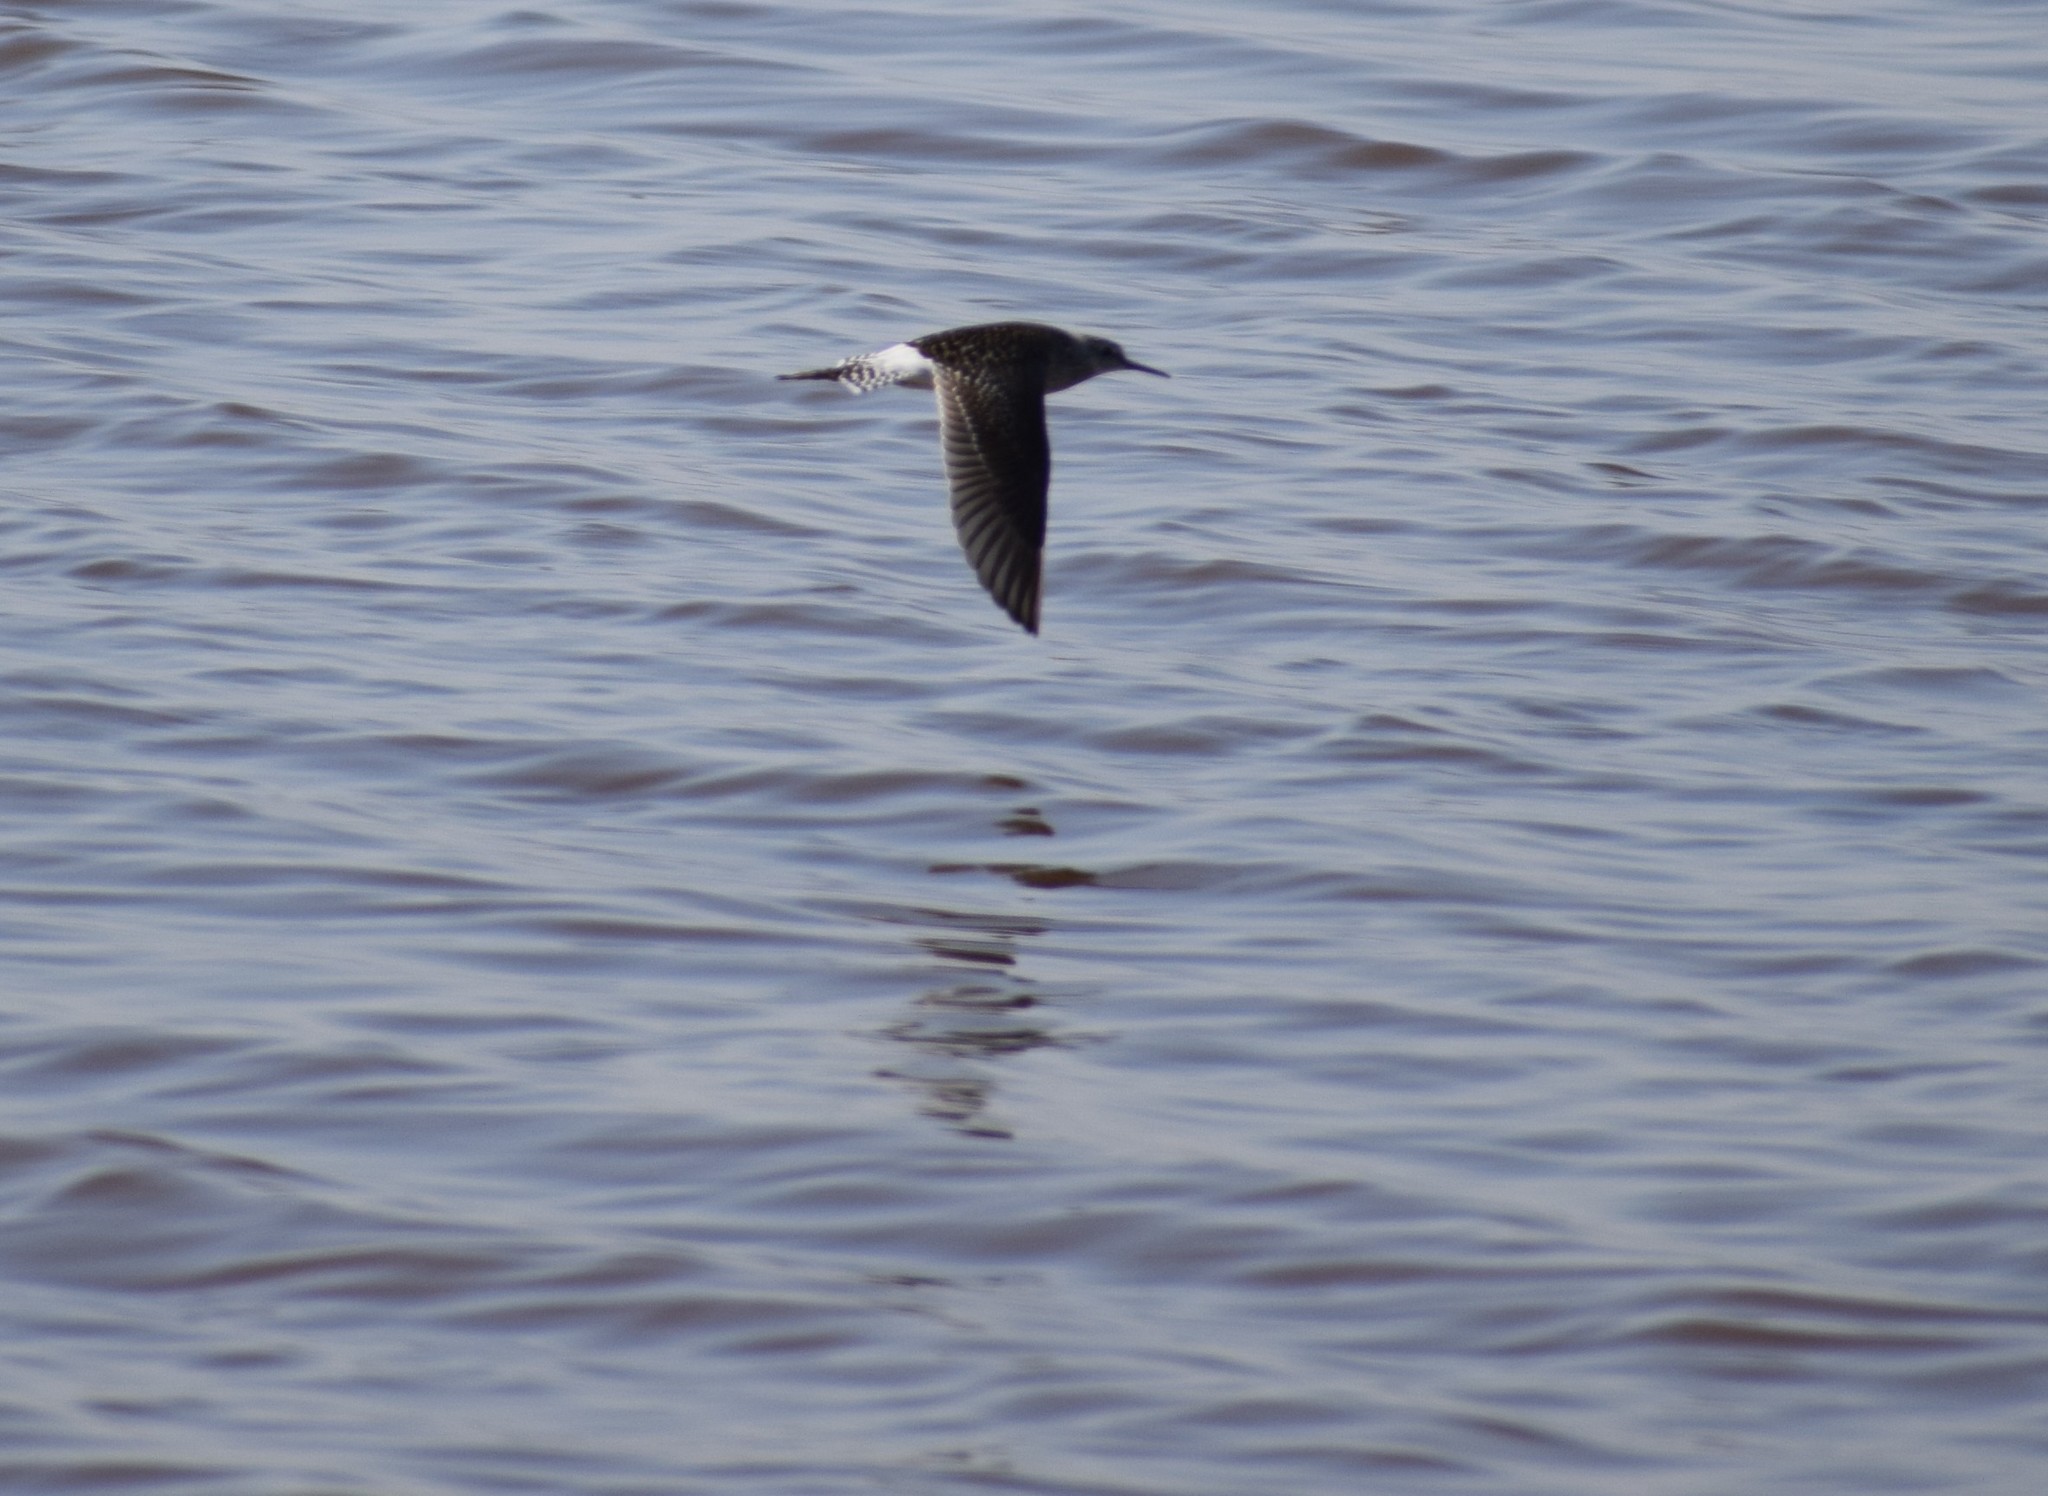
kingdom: Animalia
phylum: Chordata
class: Aves
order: Charadriiformes
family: Scolopacidae
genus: Tringa
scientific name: Tringa glareola
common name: Wood sandpiper
